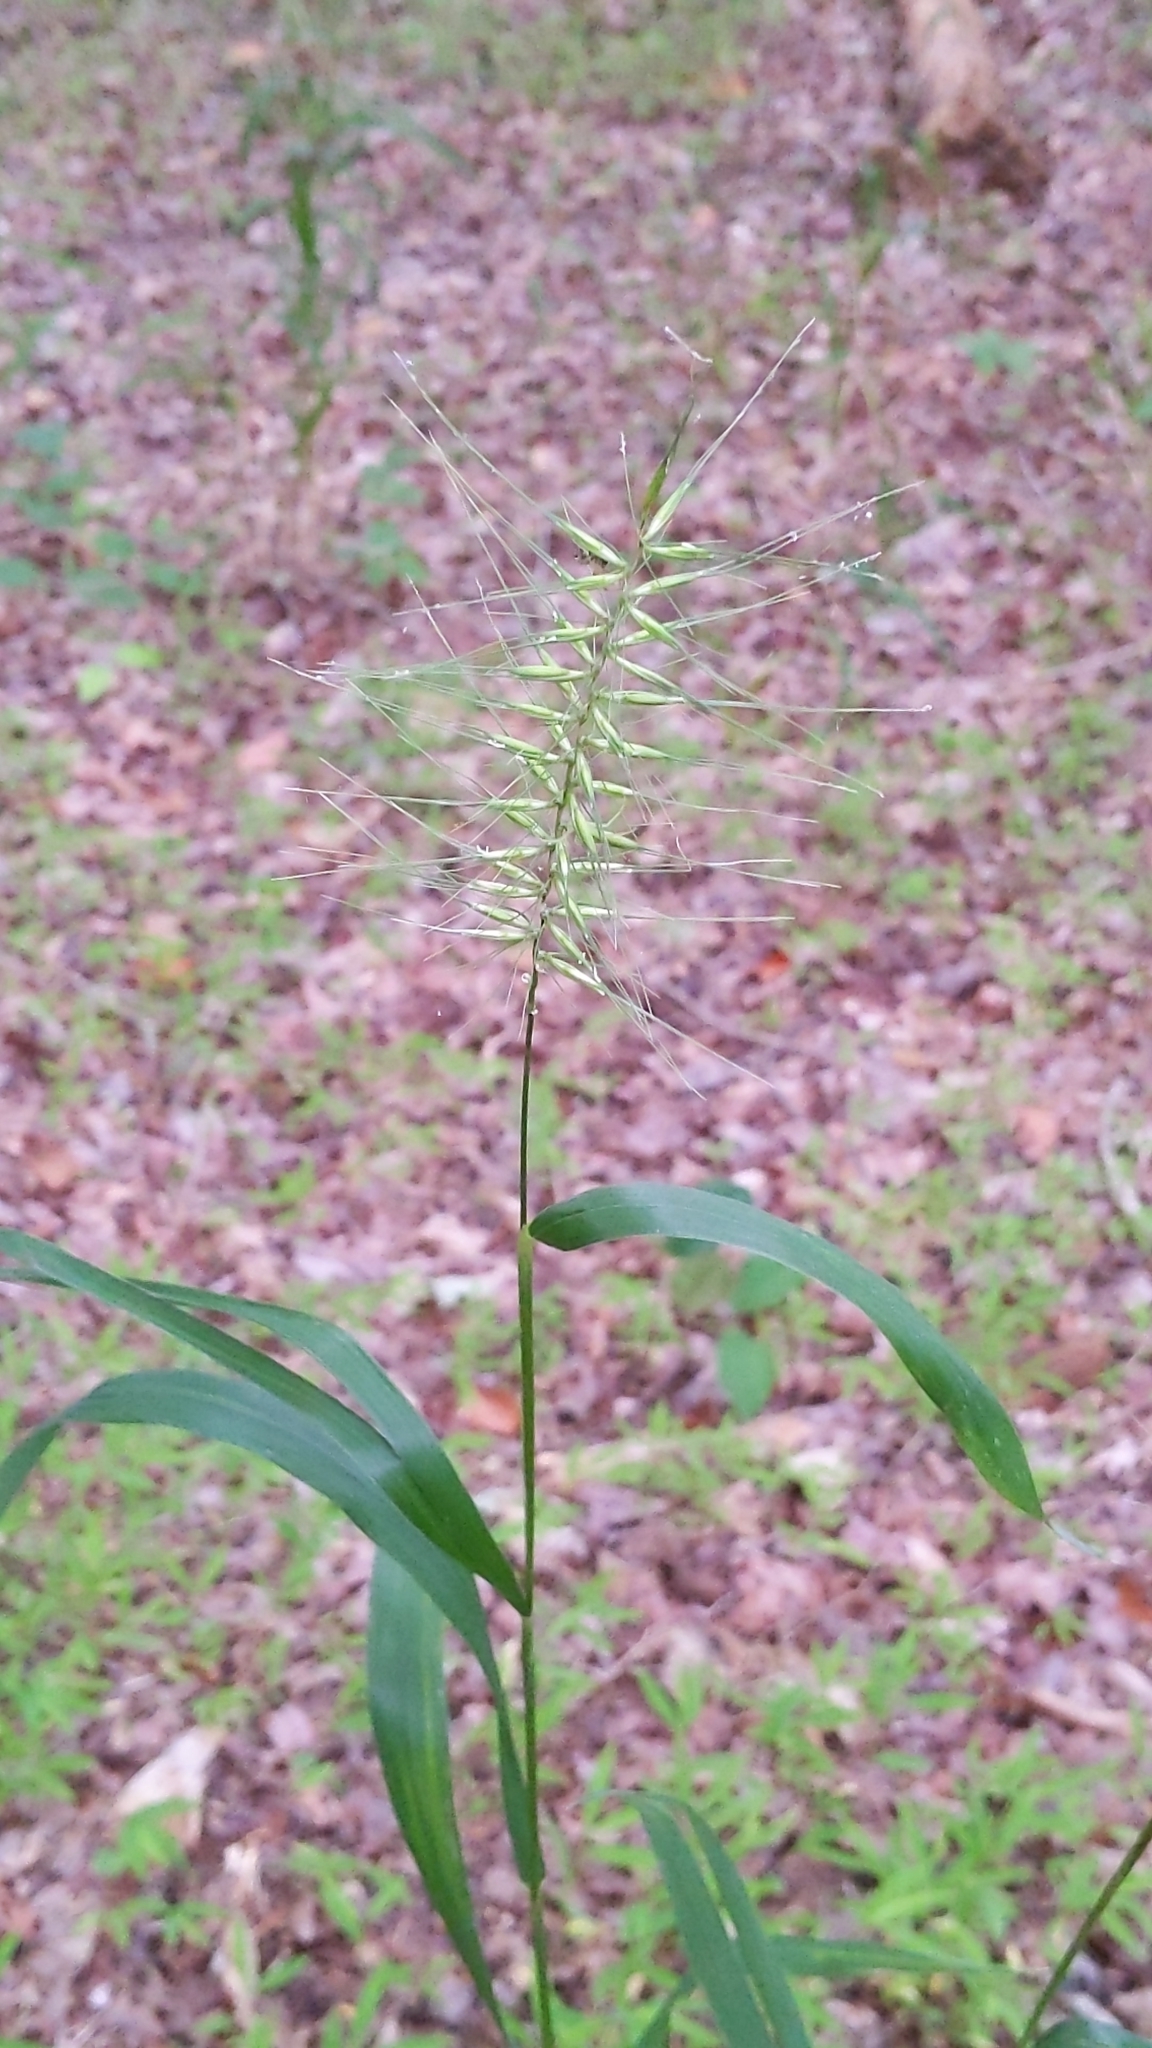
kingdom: Plantae
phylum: Tracheophyta
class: Liliopsida
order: Poales
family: Poaceae
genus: Elymus
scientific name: Elymus hystrix
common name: Bottlebrush grass
